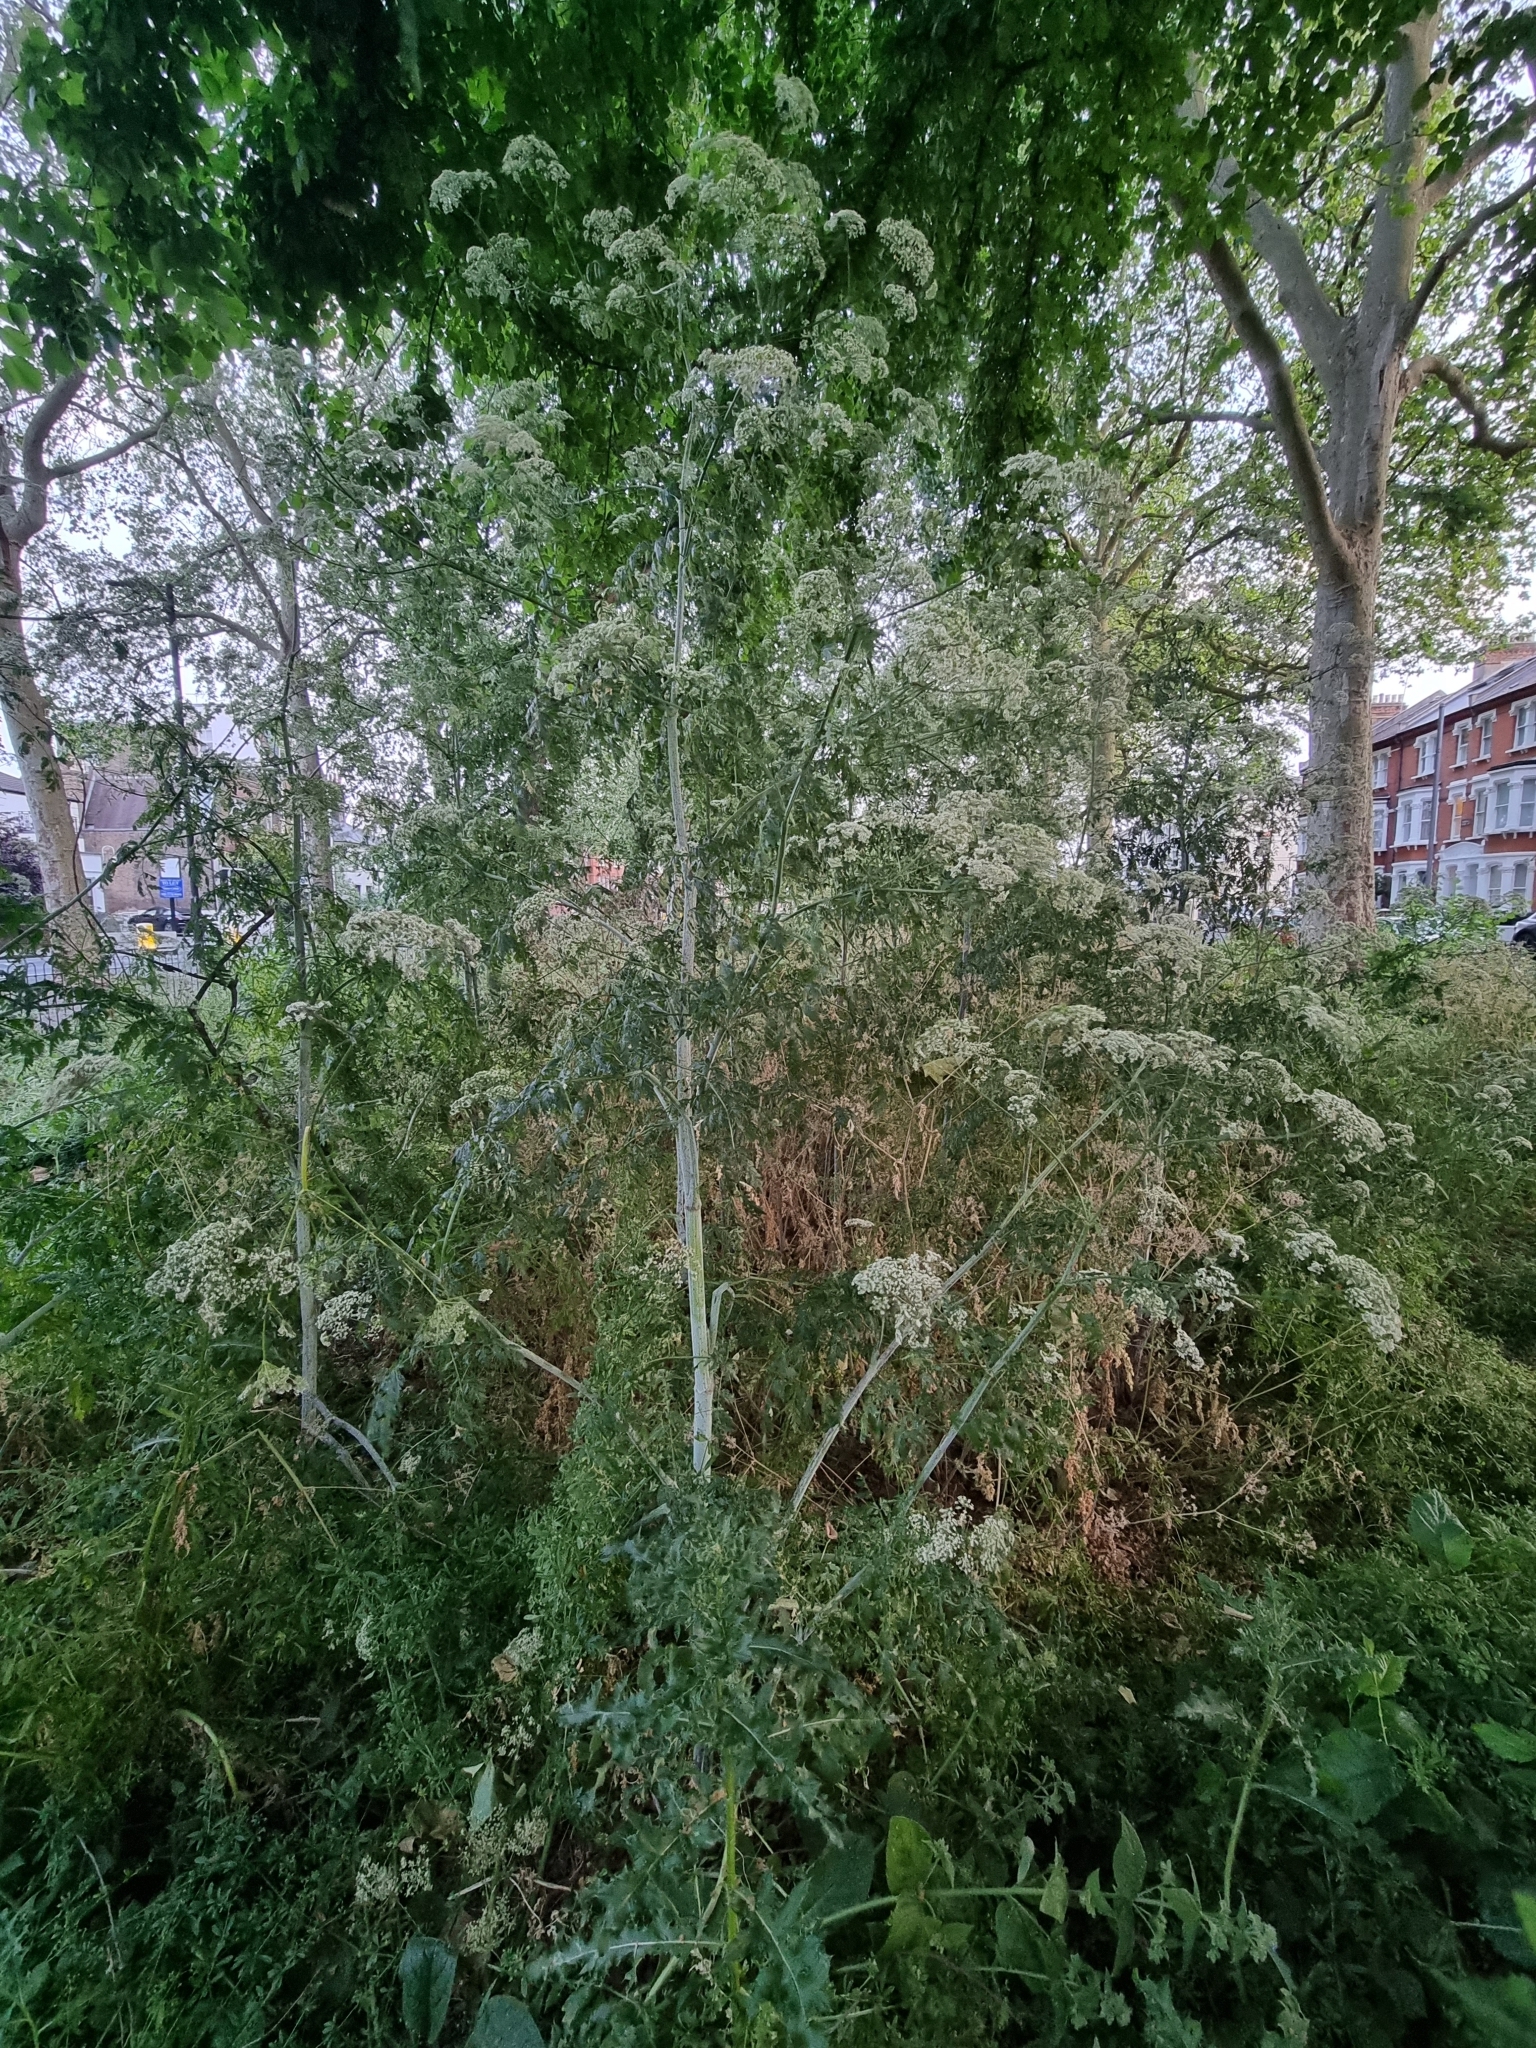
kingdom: Plantae
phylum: Tracheophyta
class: Magnoliopsida
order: Apiales
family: Apiaceae
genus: Conium
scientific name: Conium maculatum
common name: Hemlock
